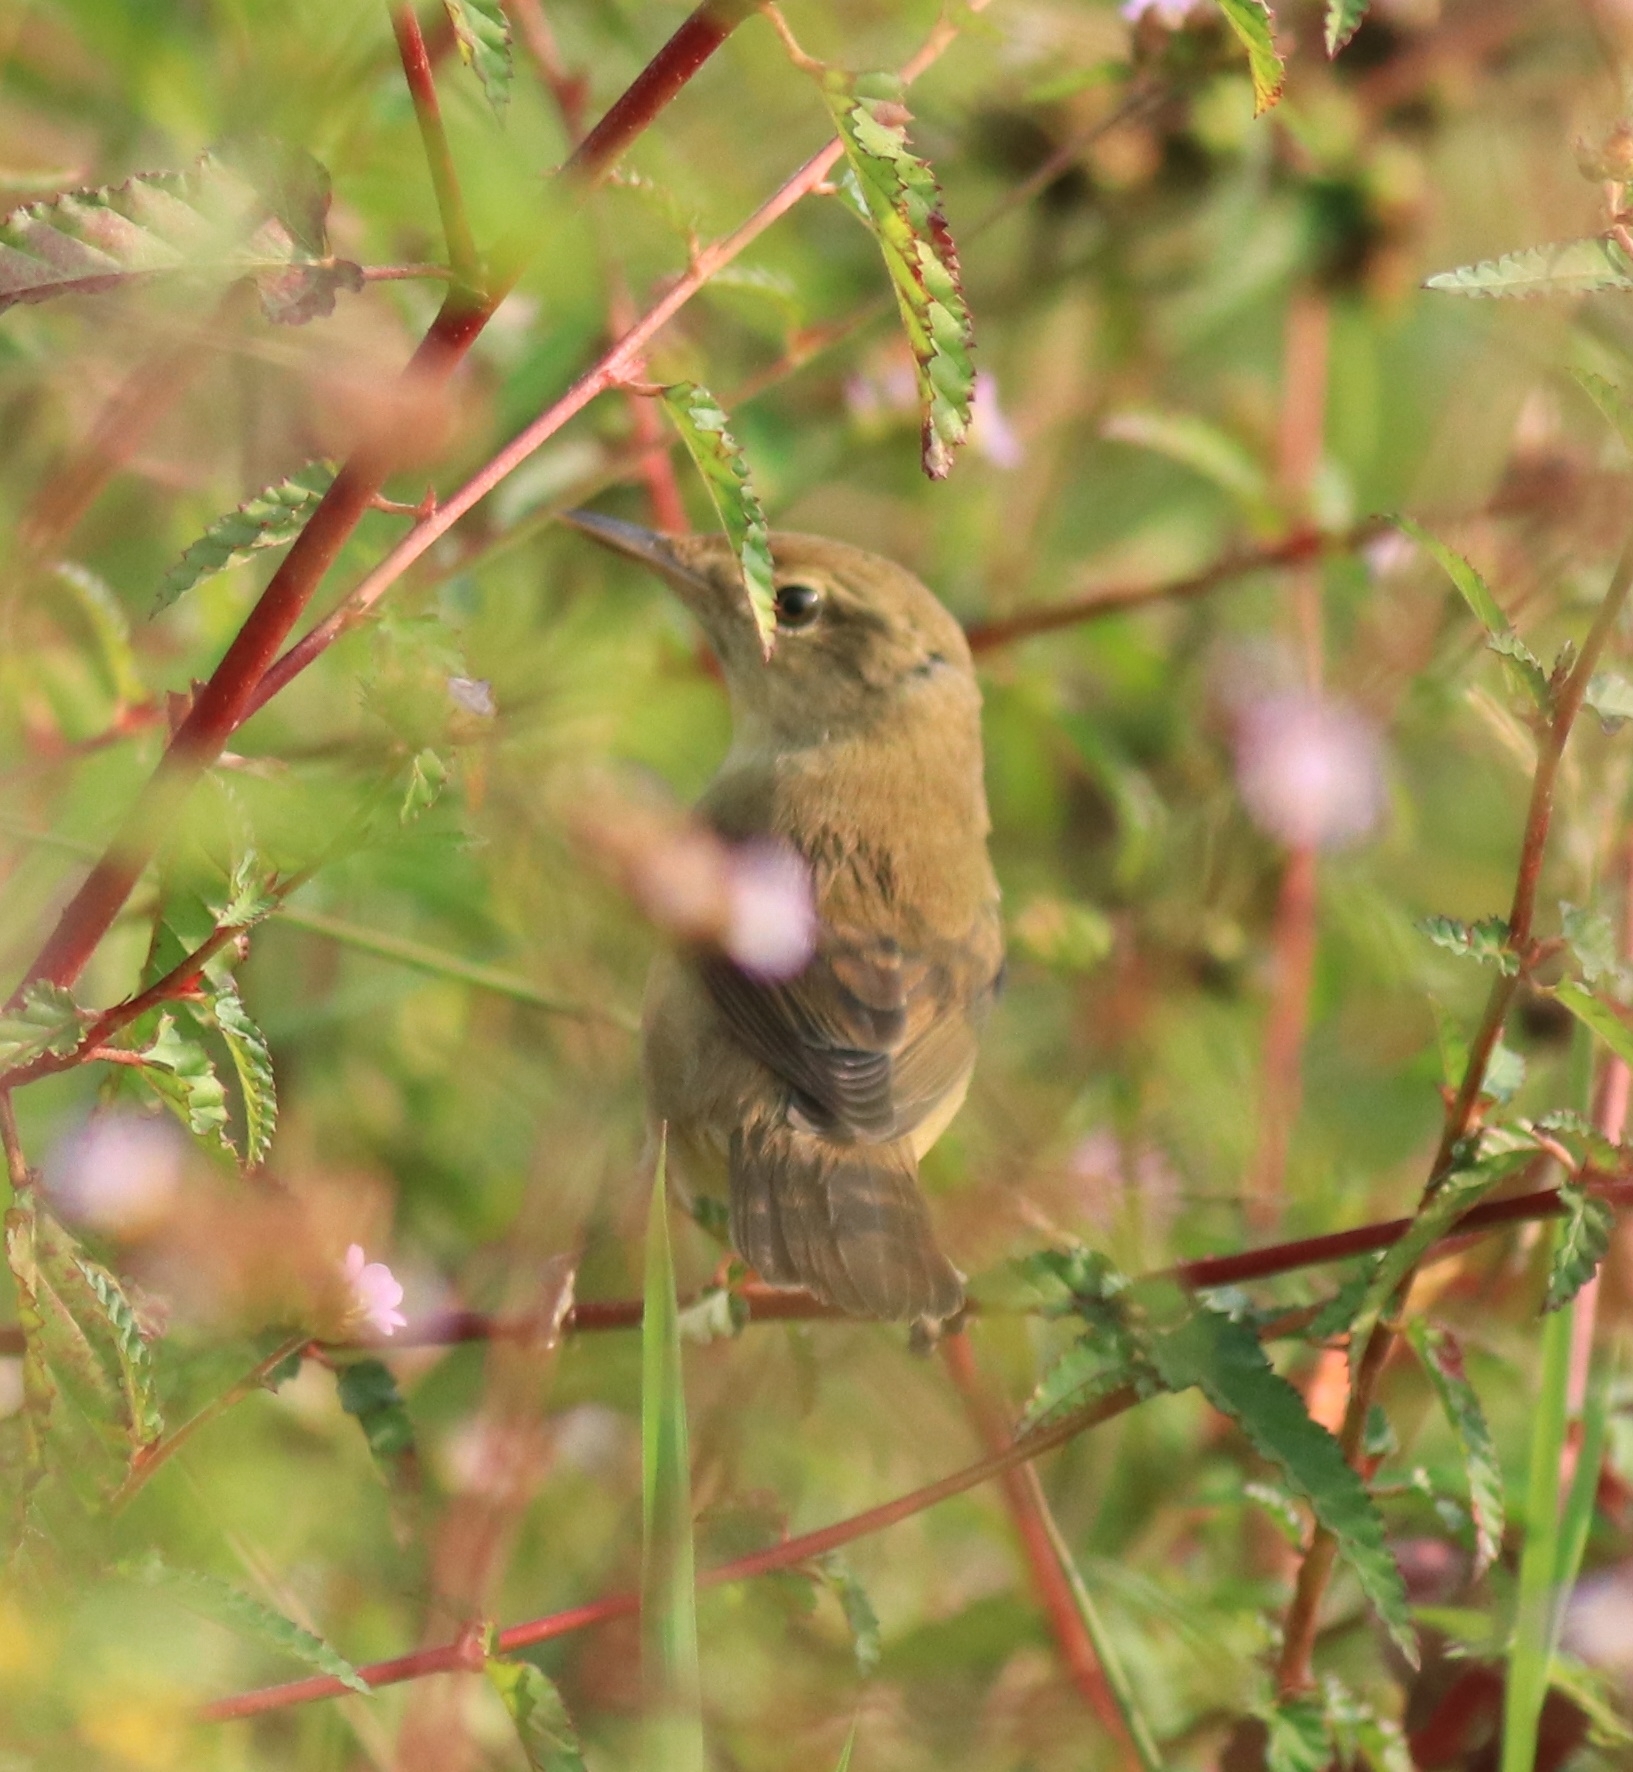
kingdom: Animalia
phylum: Chordata
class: Aves
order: Passeriformes
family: Acrocephalidae
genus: Acrocephalus
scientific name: Acrocephalus dumetorum
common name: Blyth's reed warbler
